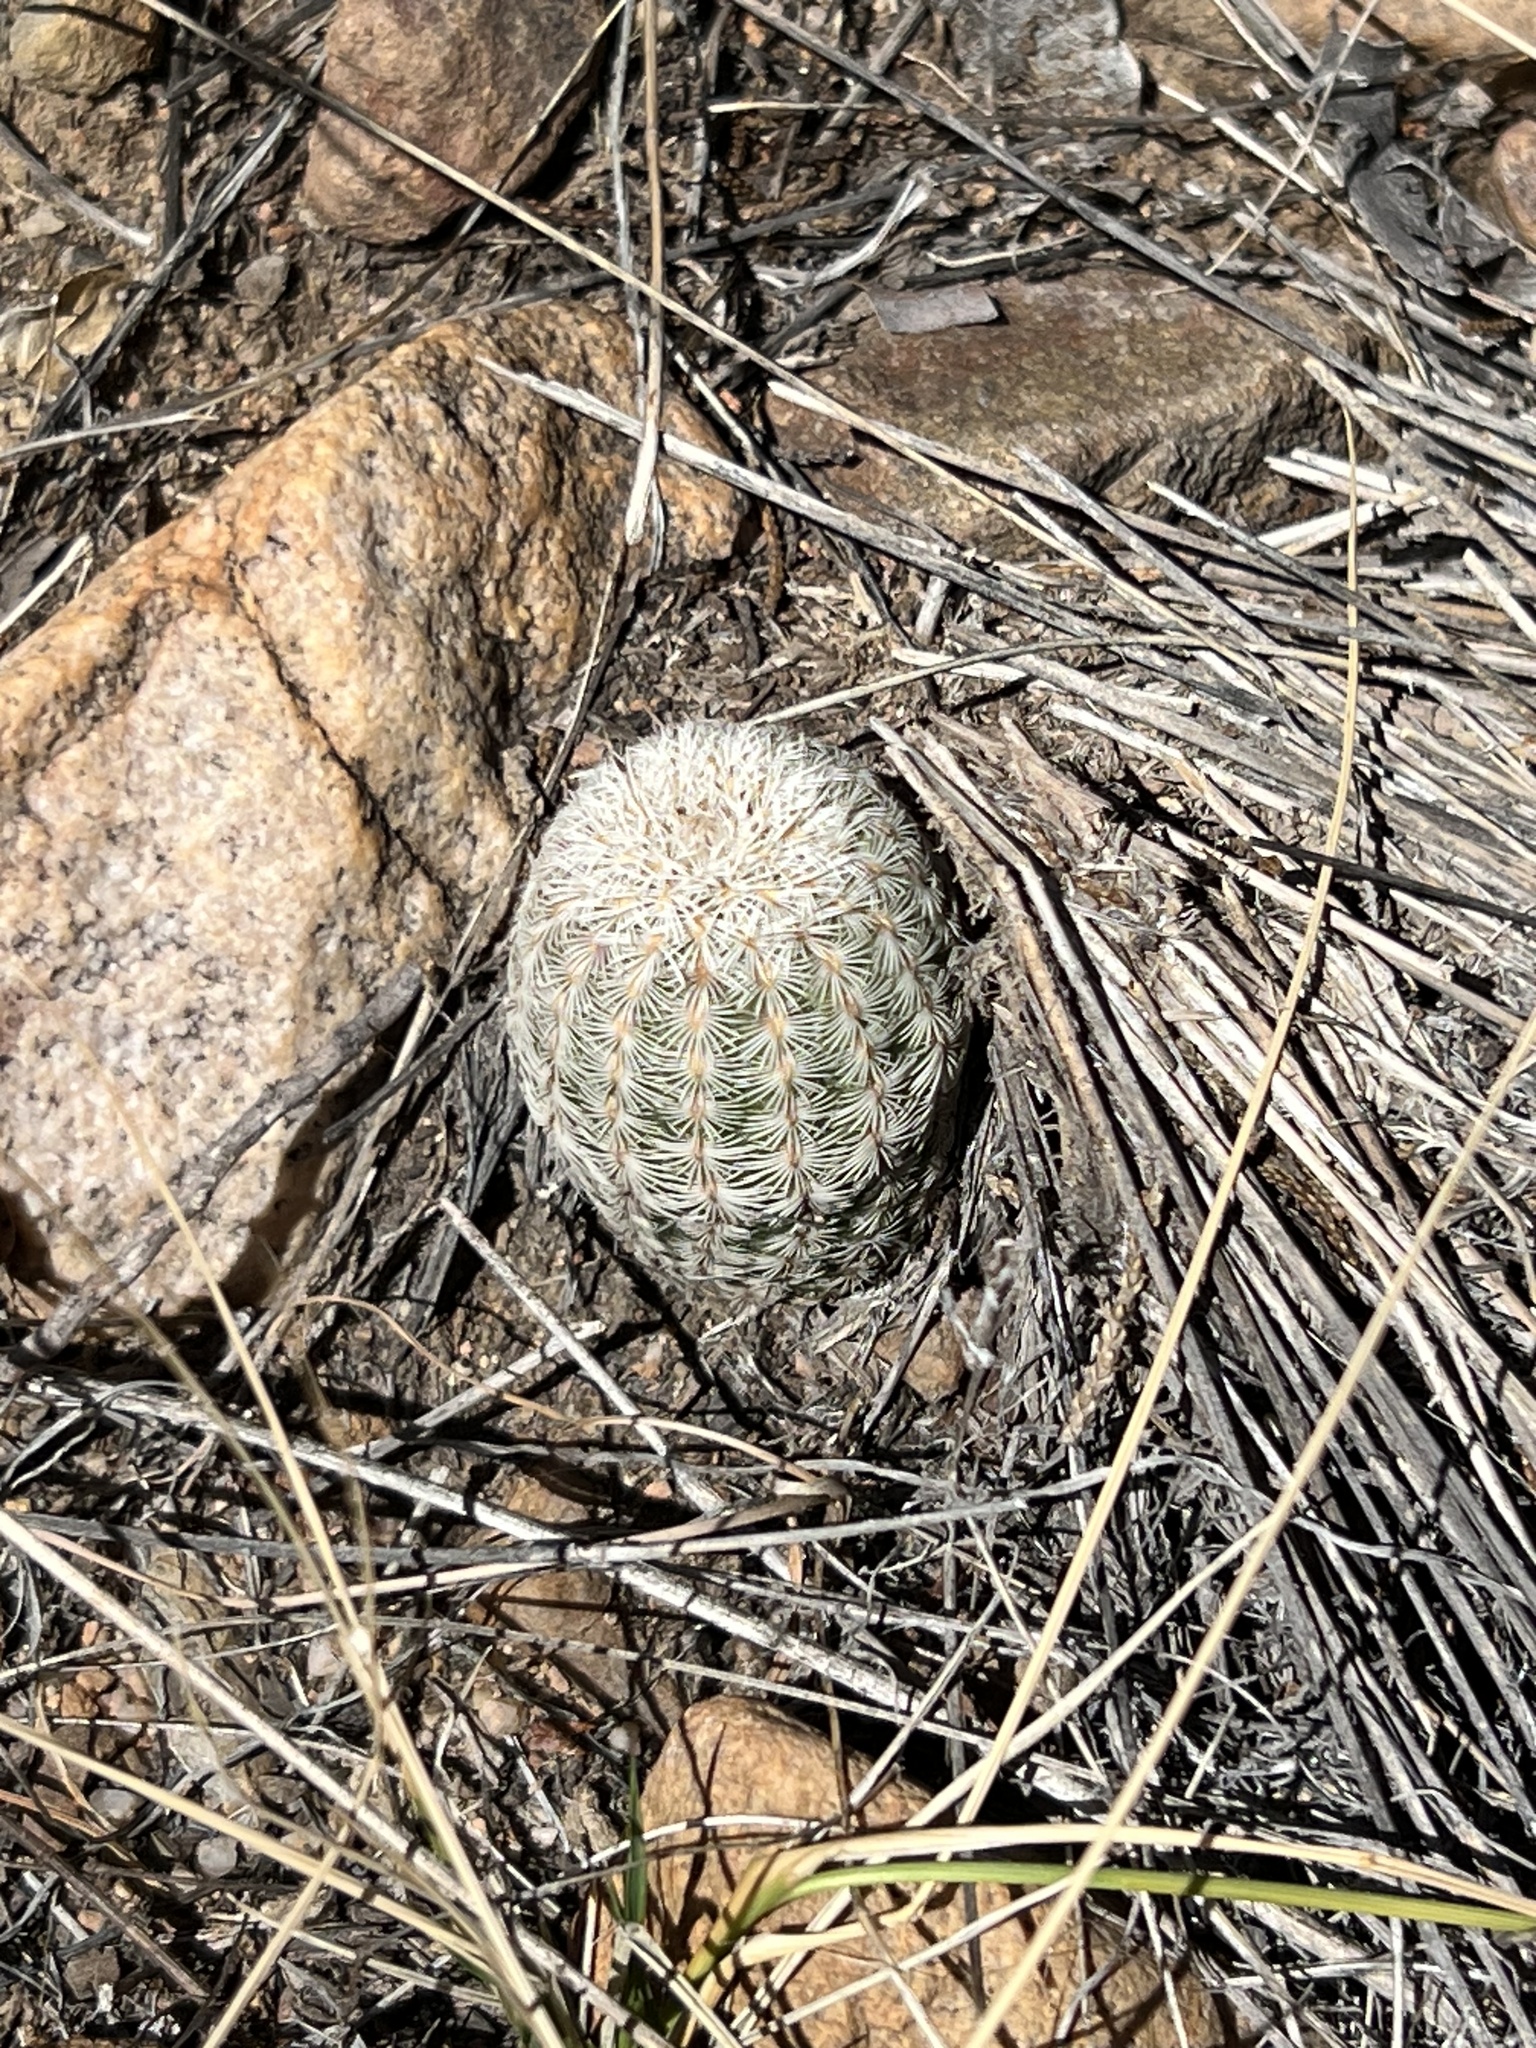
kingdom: Plantae
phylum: Tracheophyta
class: Magnoliopsida
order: Caryophyllales
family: Cactaceae
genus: Echinocereus
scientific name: Echinocereus rigidissimus
